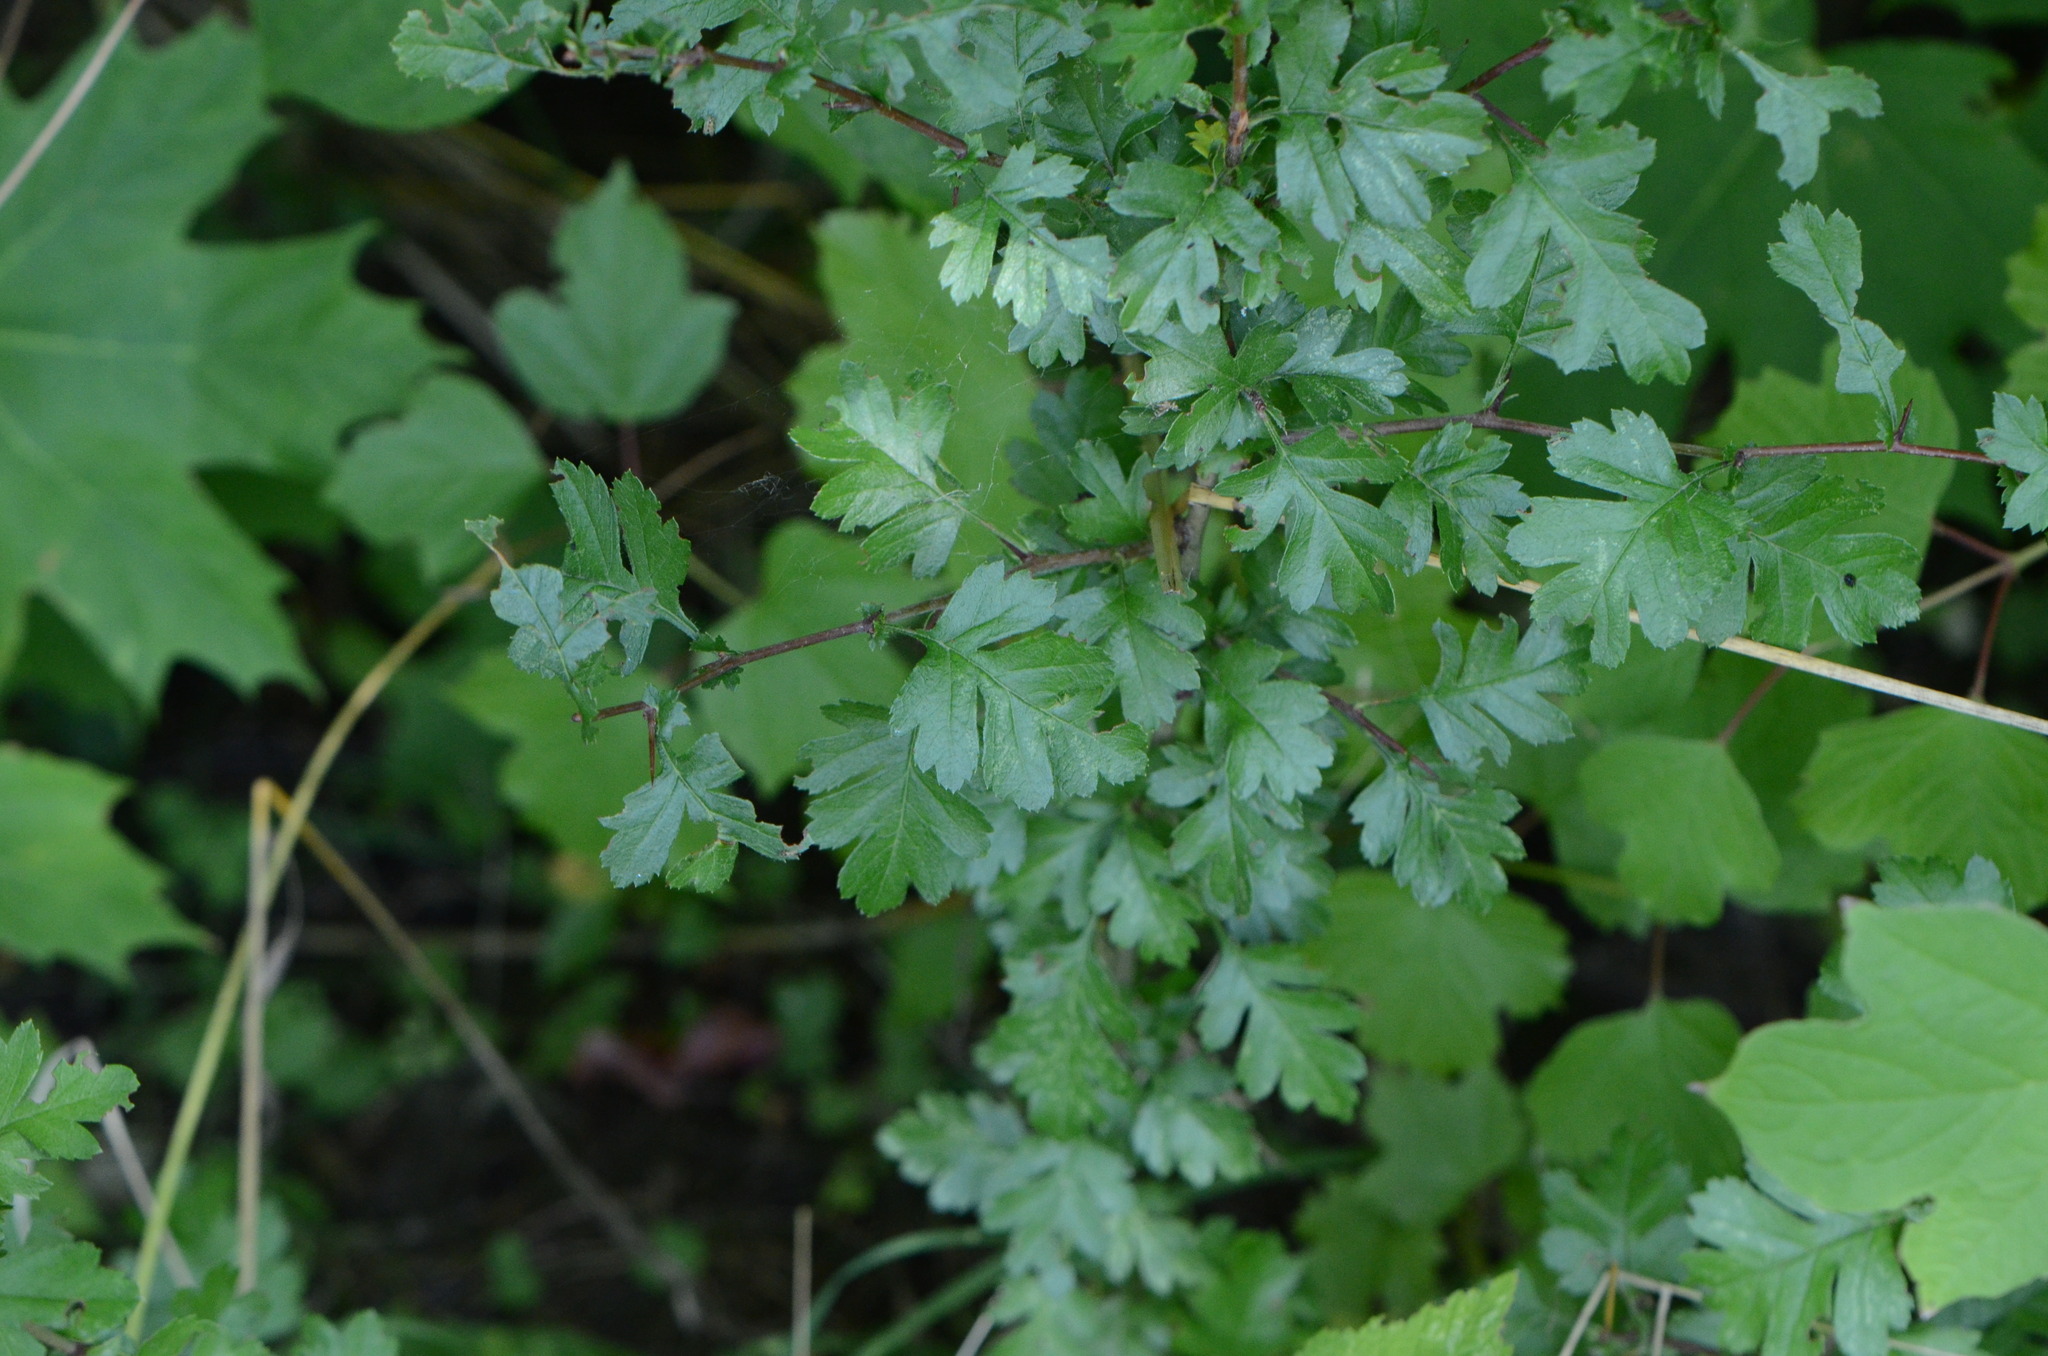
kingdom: Plantae
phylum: Tracheophyta
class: Magnoliopsida
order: Rosales
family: Rosaceae
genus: Crataegus
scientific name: Crataegus monogyna
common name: Hawthorn
